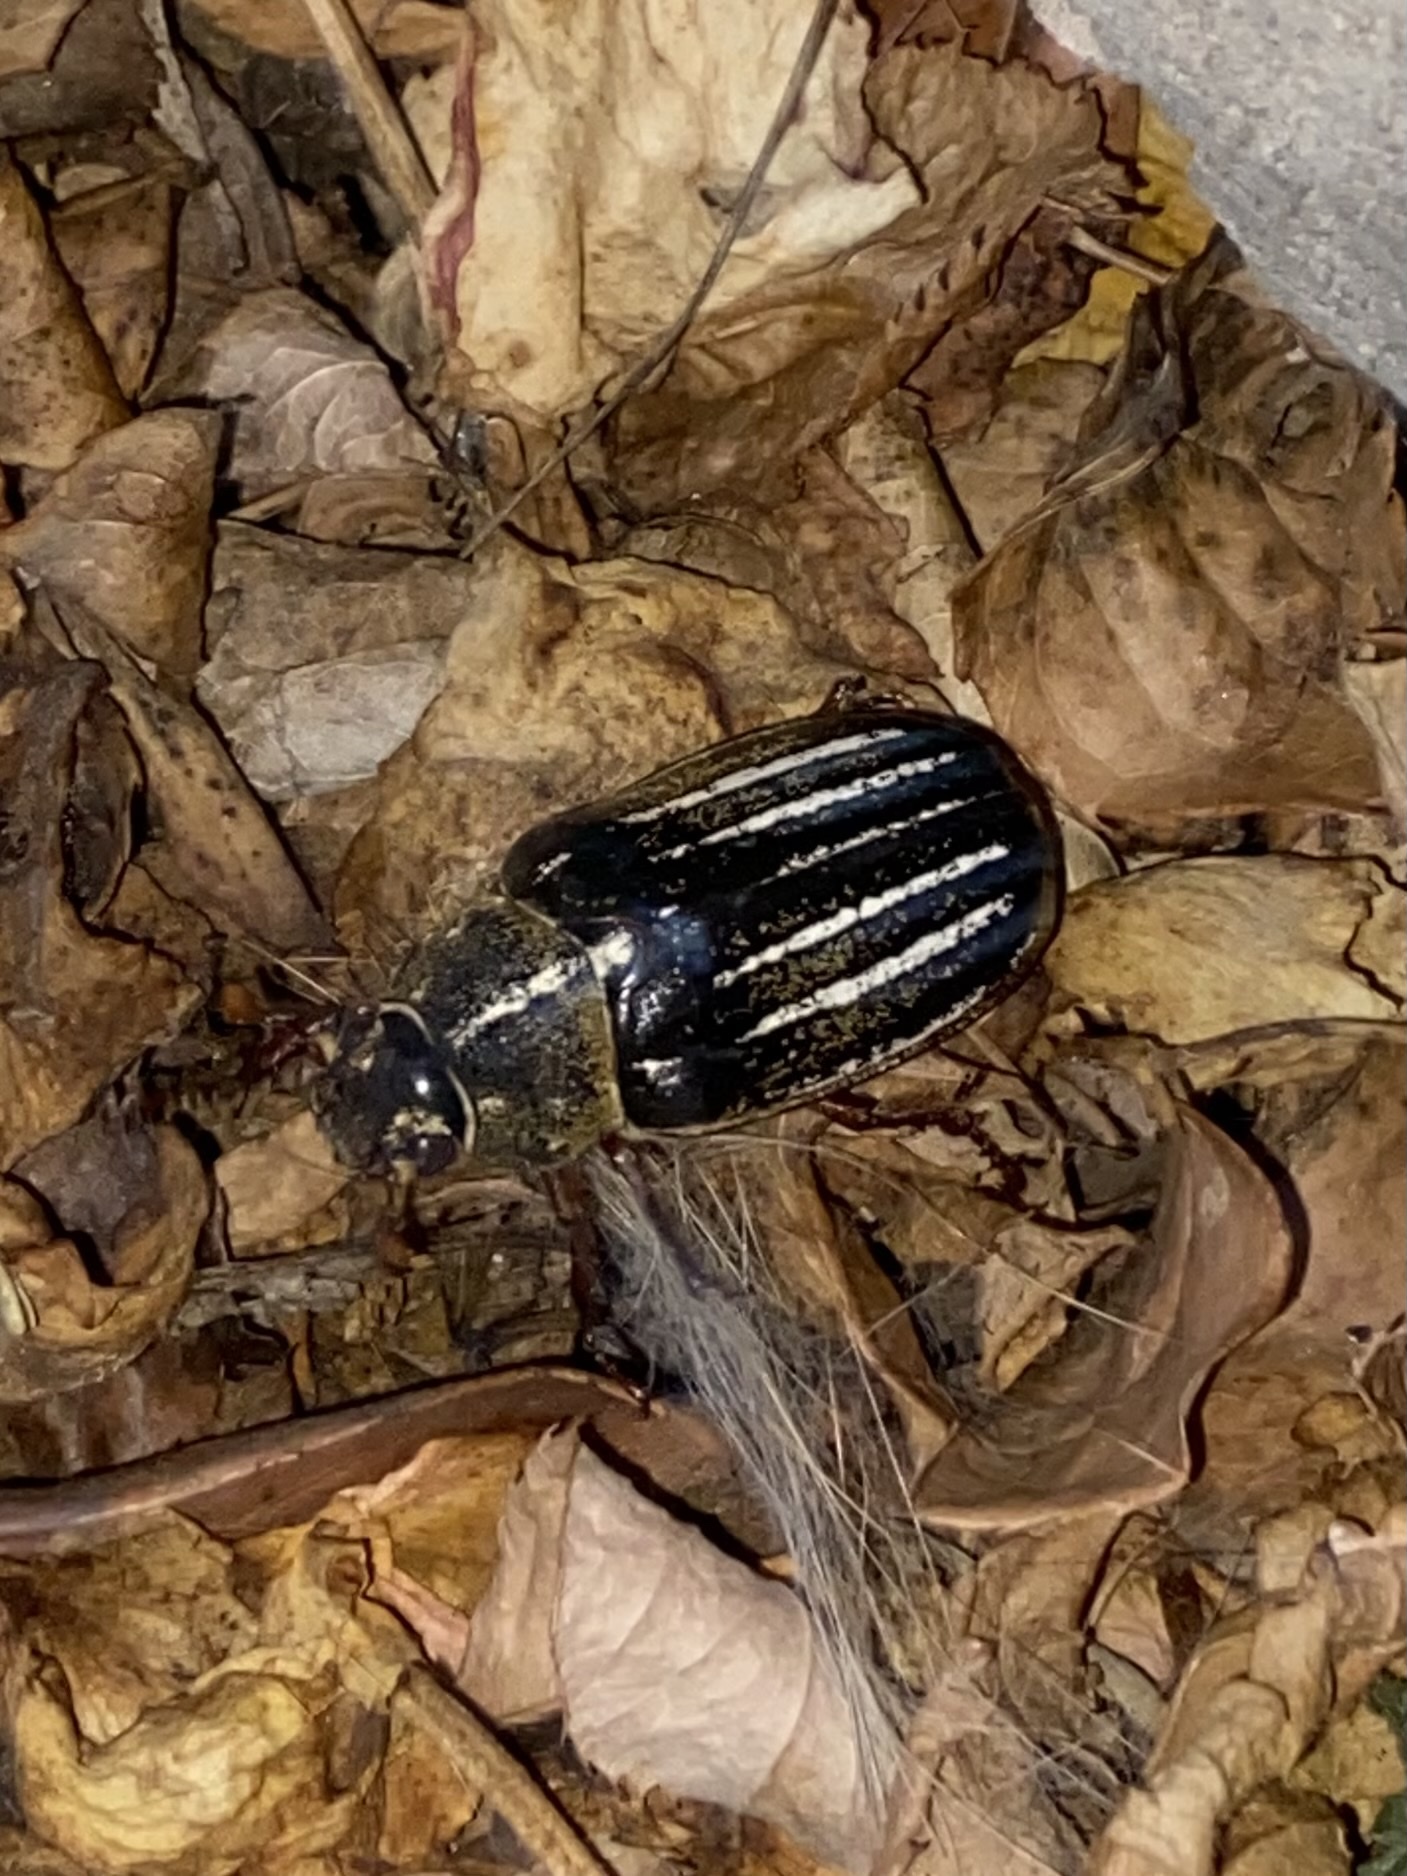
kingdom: Animalia
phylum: Arthropoda
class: Insecta
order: Coleoptera
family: Scarabaeidae
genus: Polyphylla
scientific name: Polyphylla decemlineata
